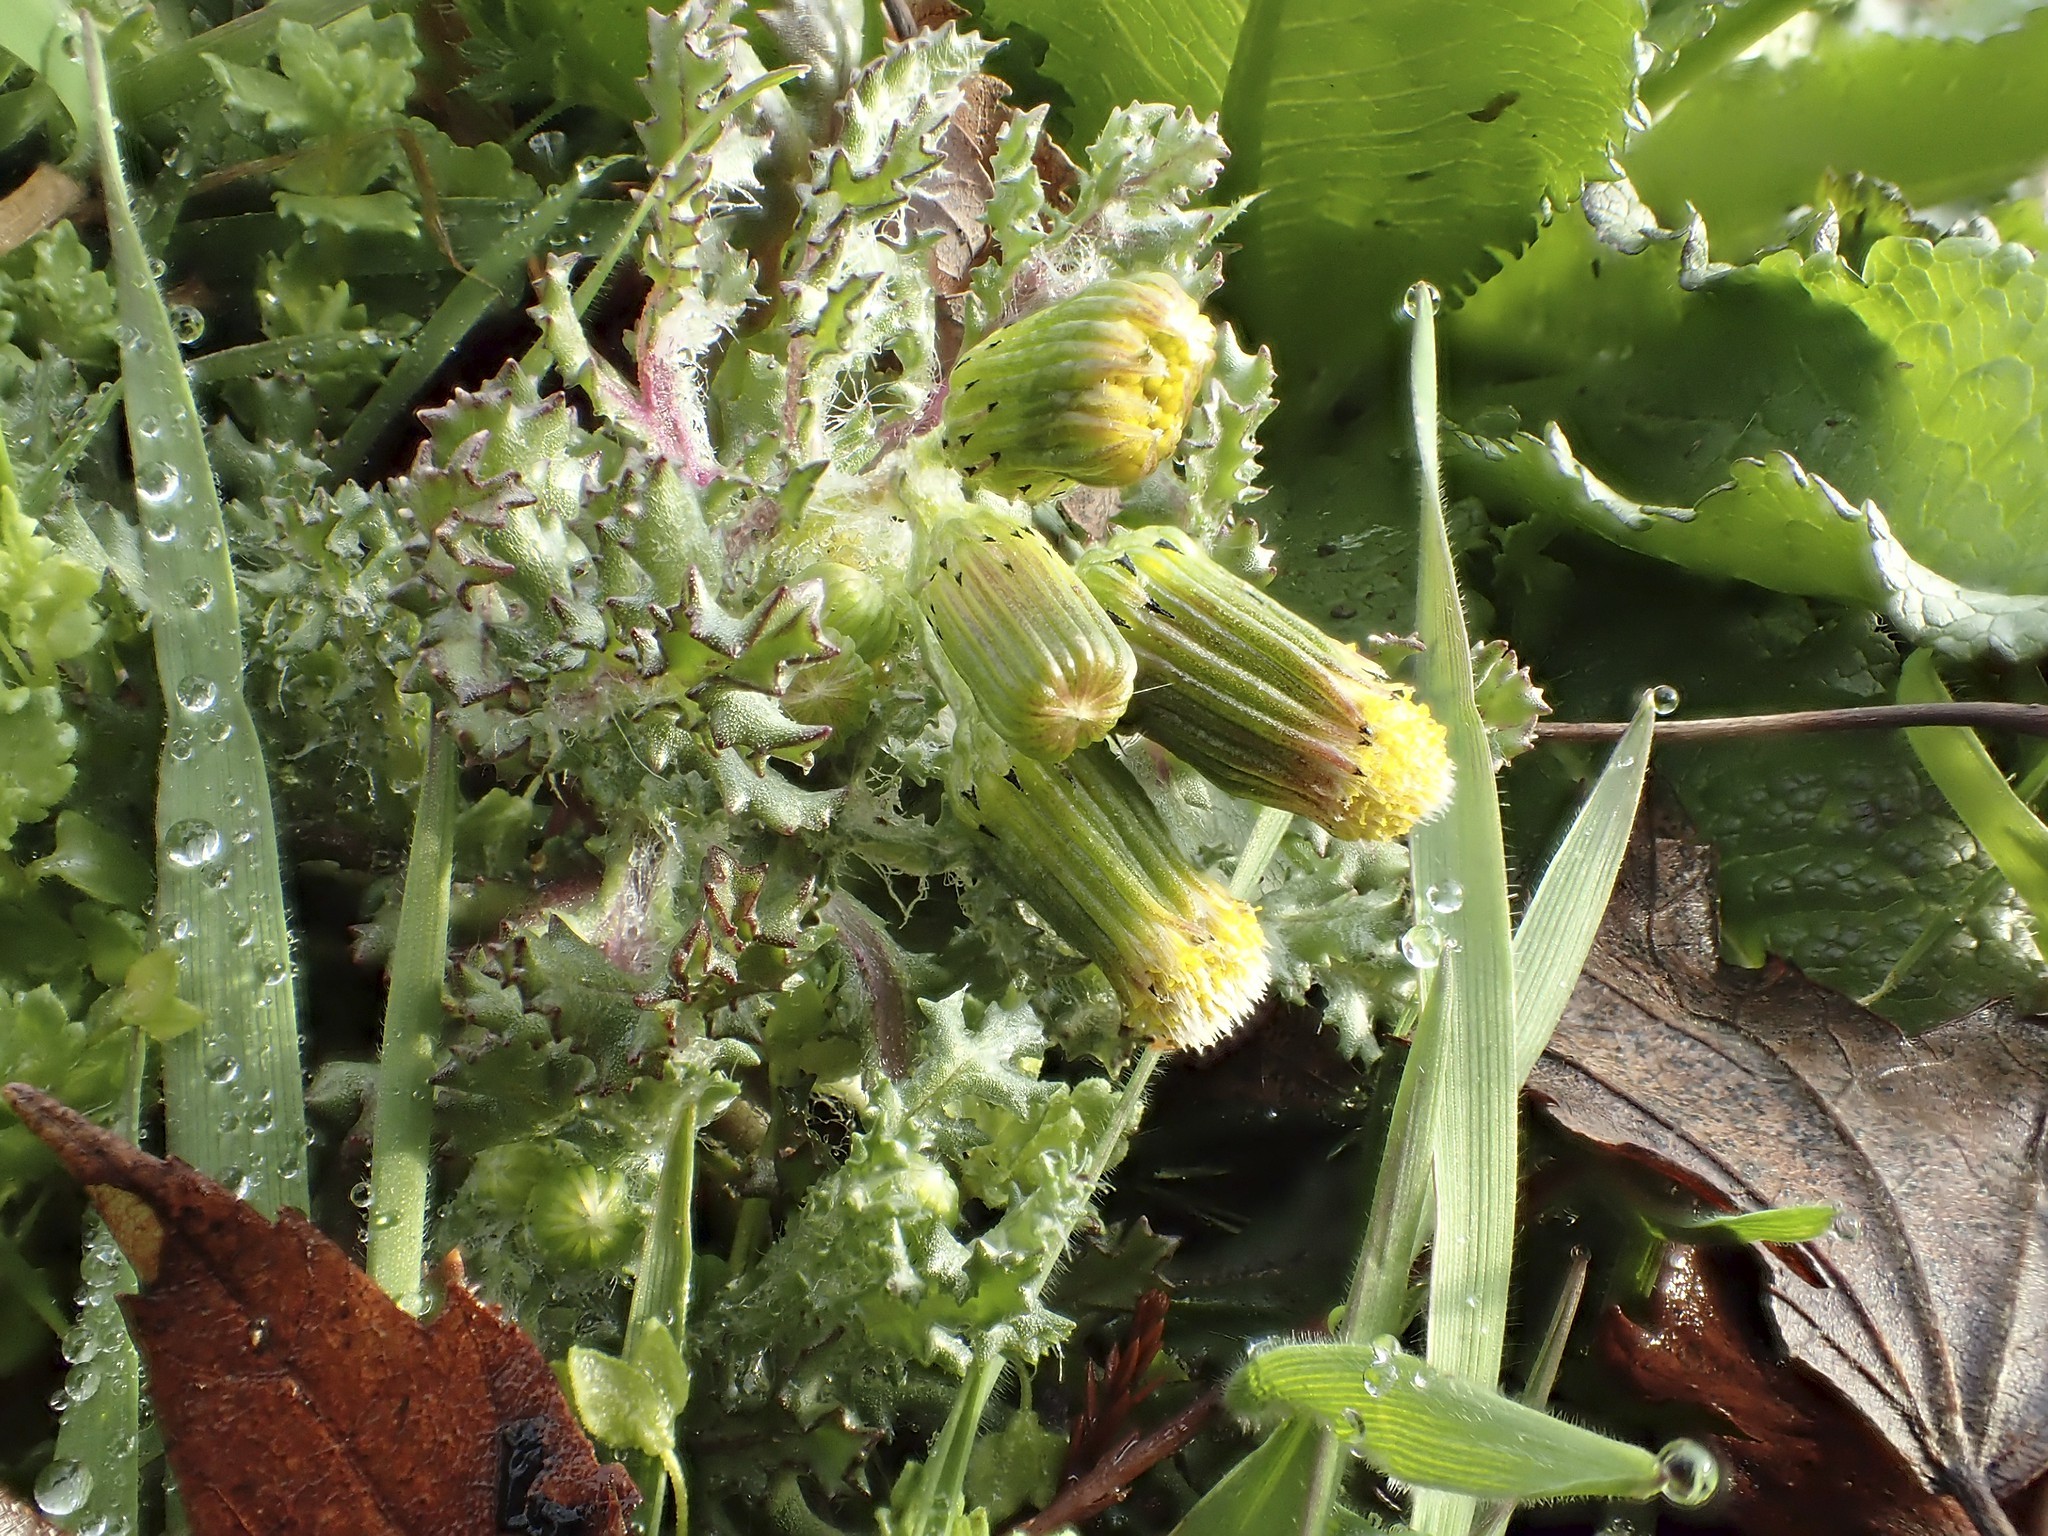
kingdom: Plantae
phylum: Tracheophyta
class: Magnoliopsida
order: Asterales
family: Asteraceae
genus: Senecio
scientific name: Senecio vulgaris
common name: Old-man-in-the-spring
